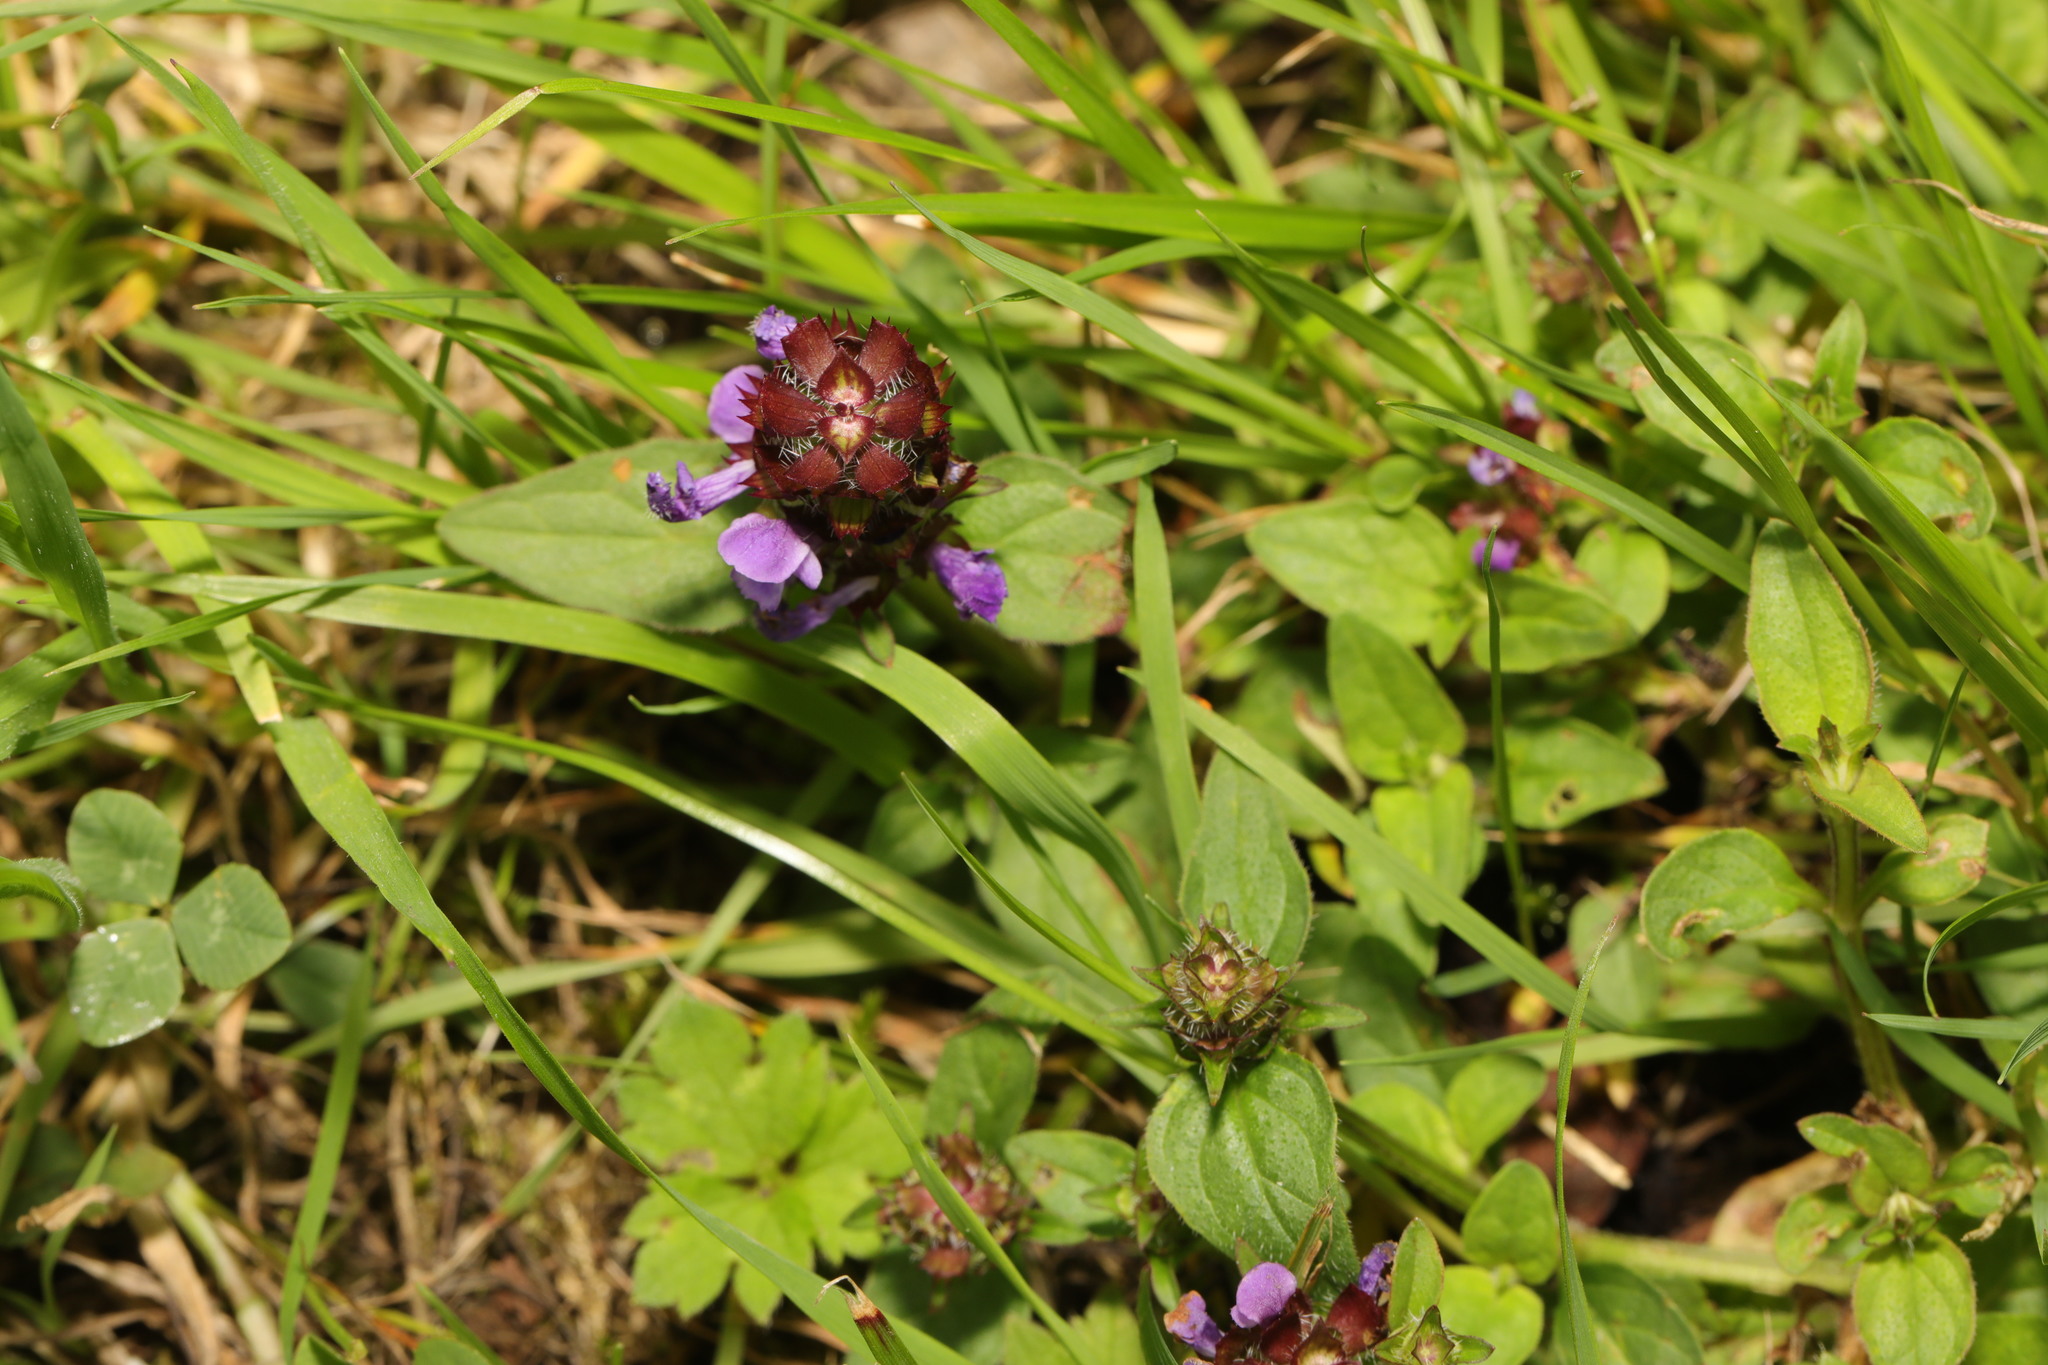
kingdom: Plantae
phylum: Tracheophyta
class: Magnoliopsida
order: Lamiales
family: Lamiaceae
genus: Prunella
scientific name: Prunella vulgaris
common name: Heal-all
